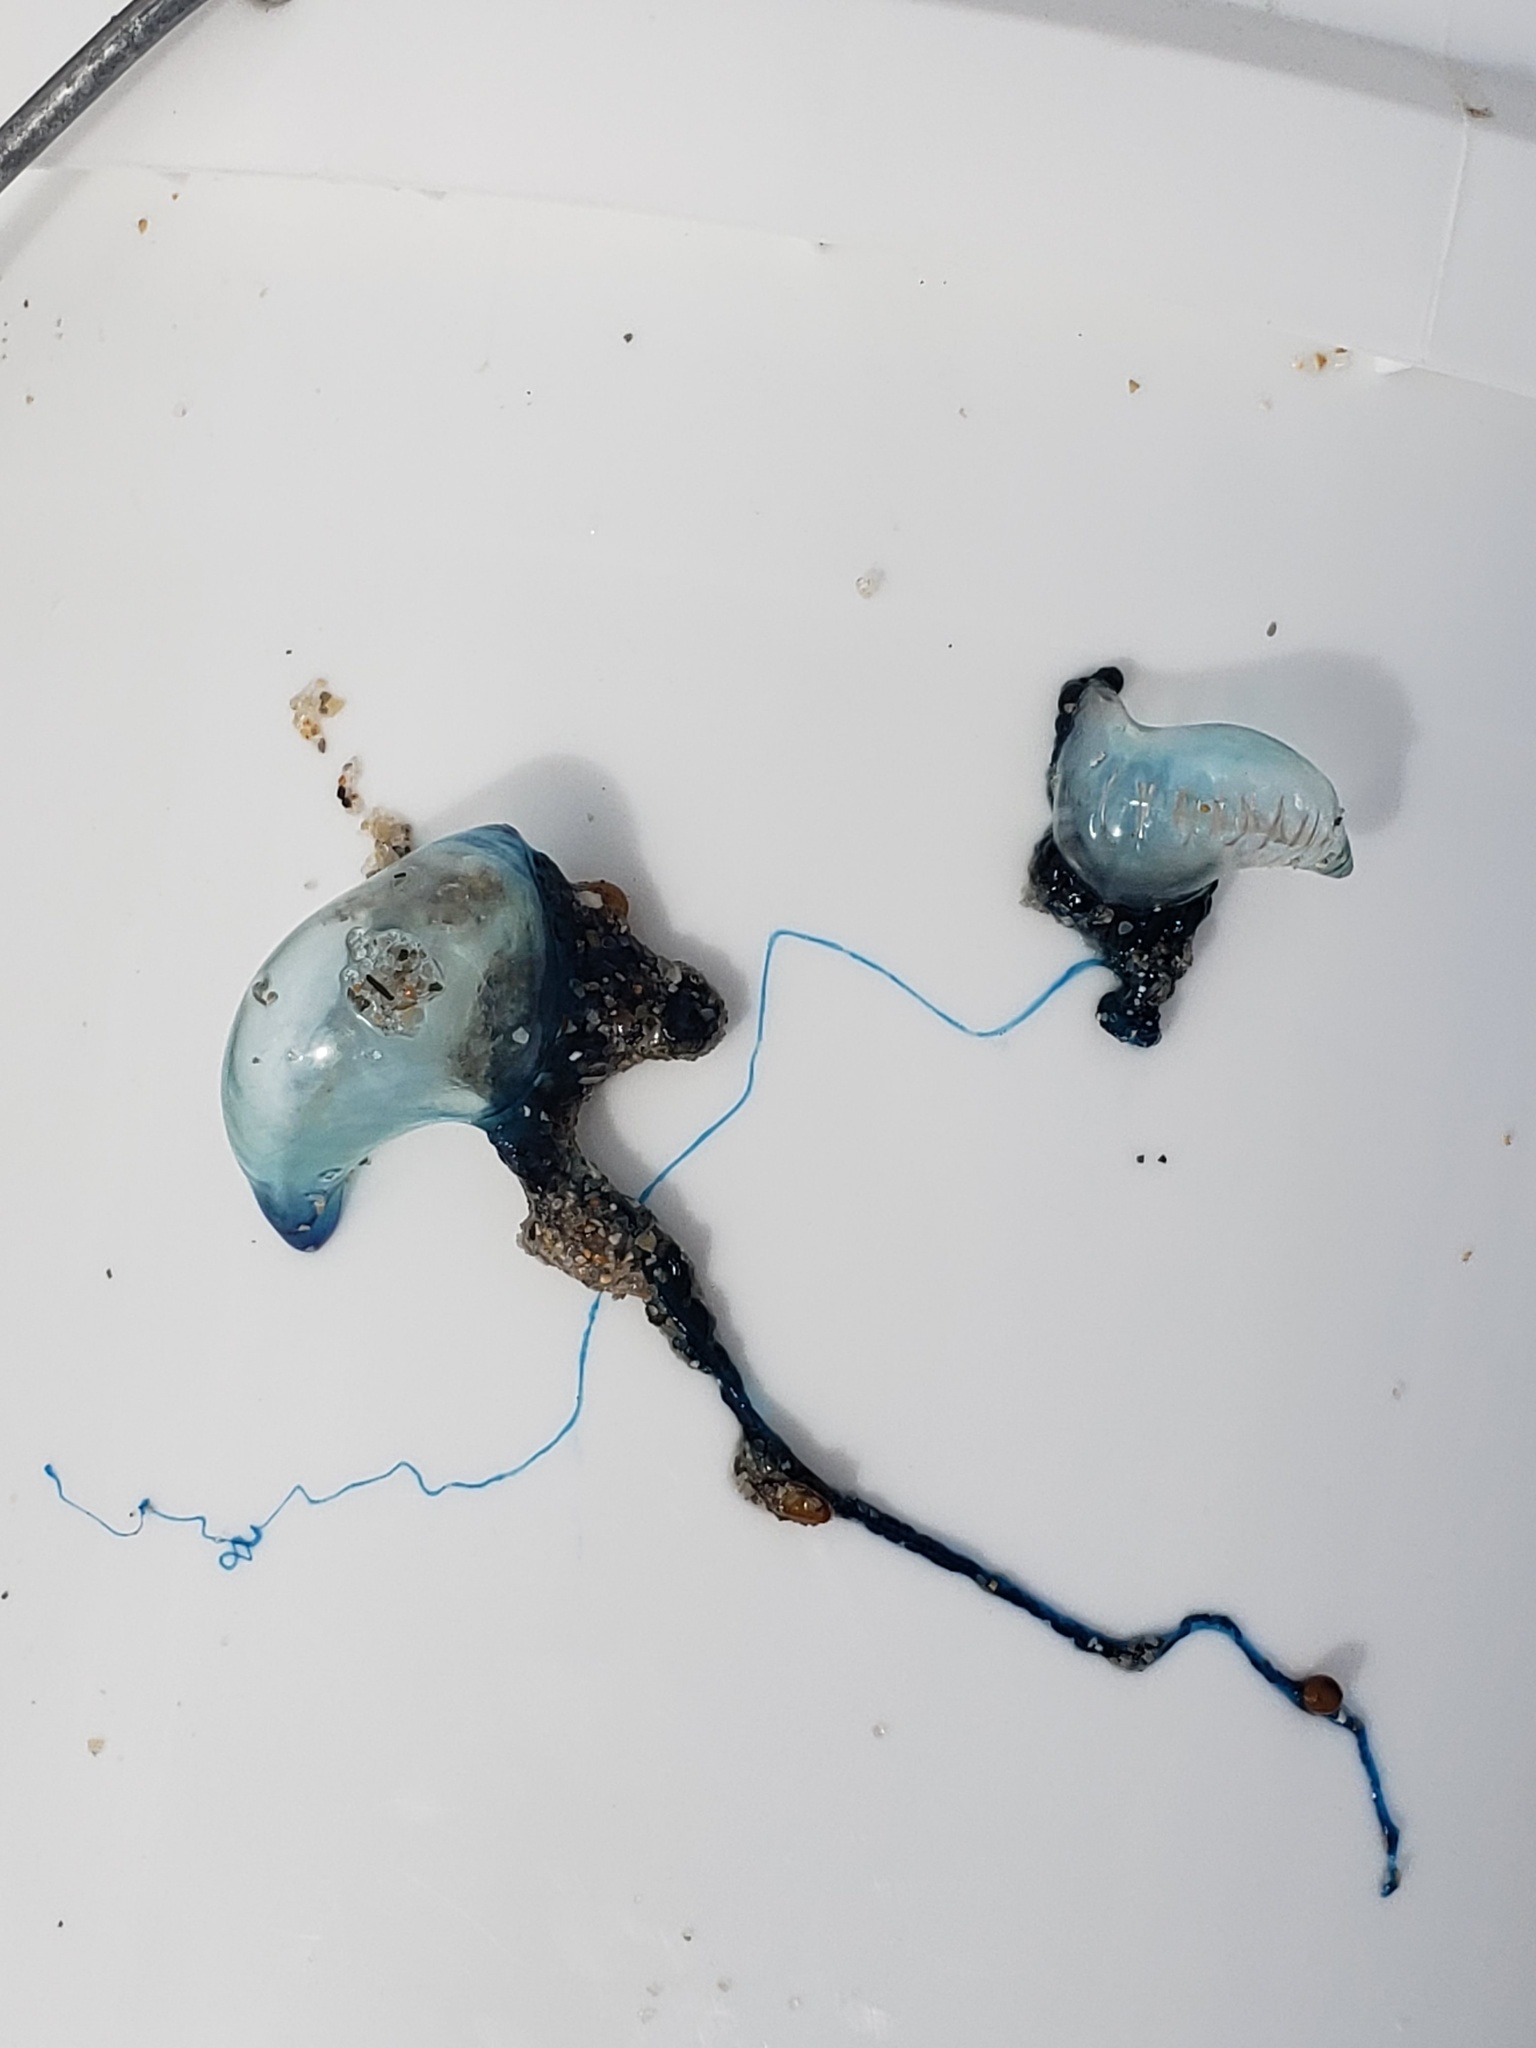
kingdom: Animalia
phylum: Cnidaria
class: Hydrozoa
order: Siphonophorae
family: Physaliidae
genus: Physalia
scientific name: Physalia physalis
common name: Portuguese man-of-war
